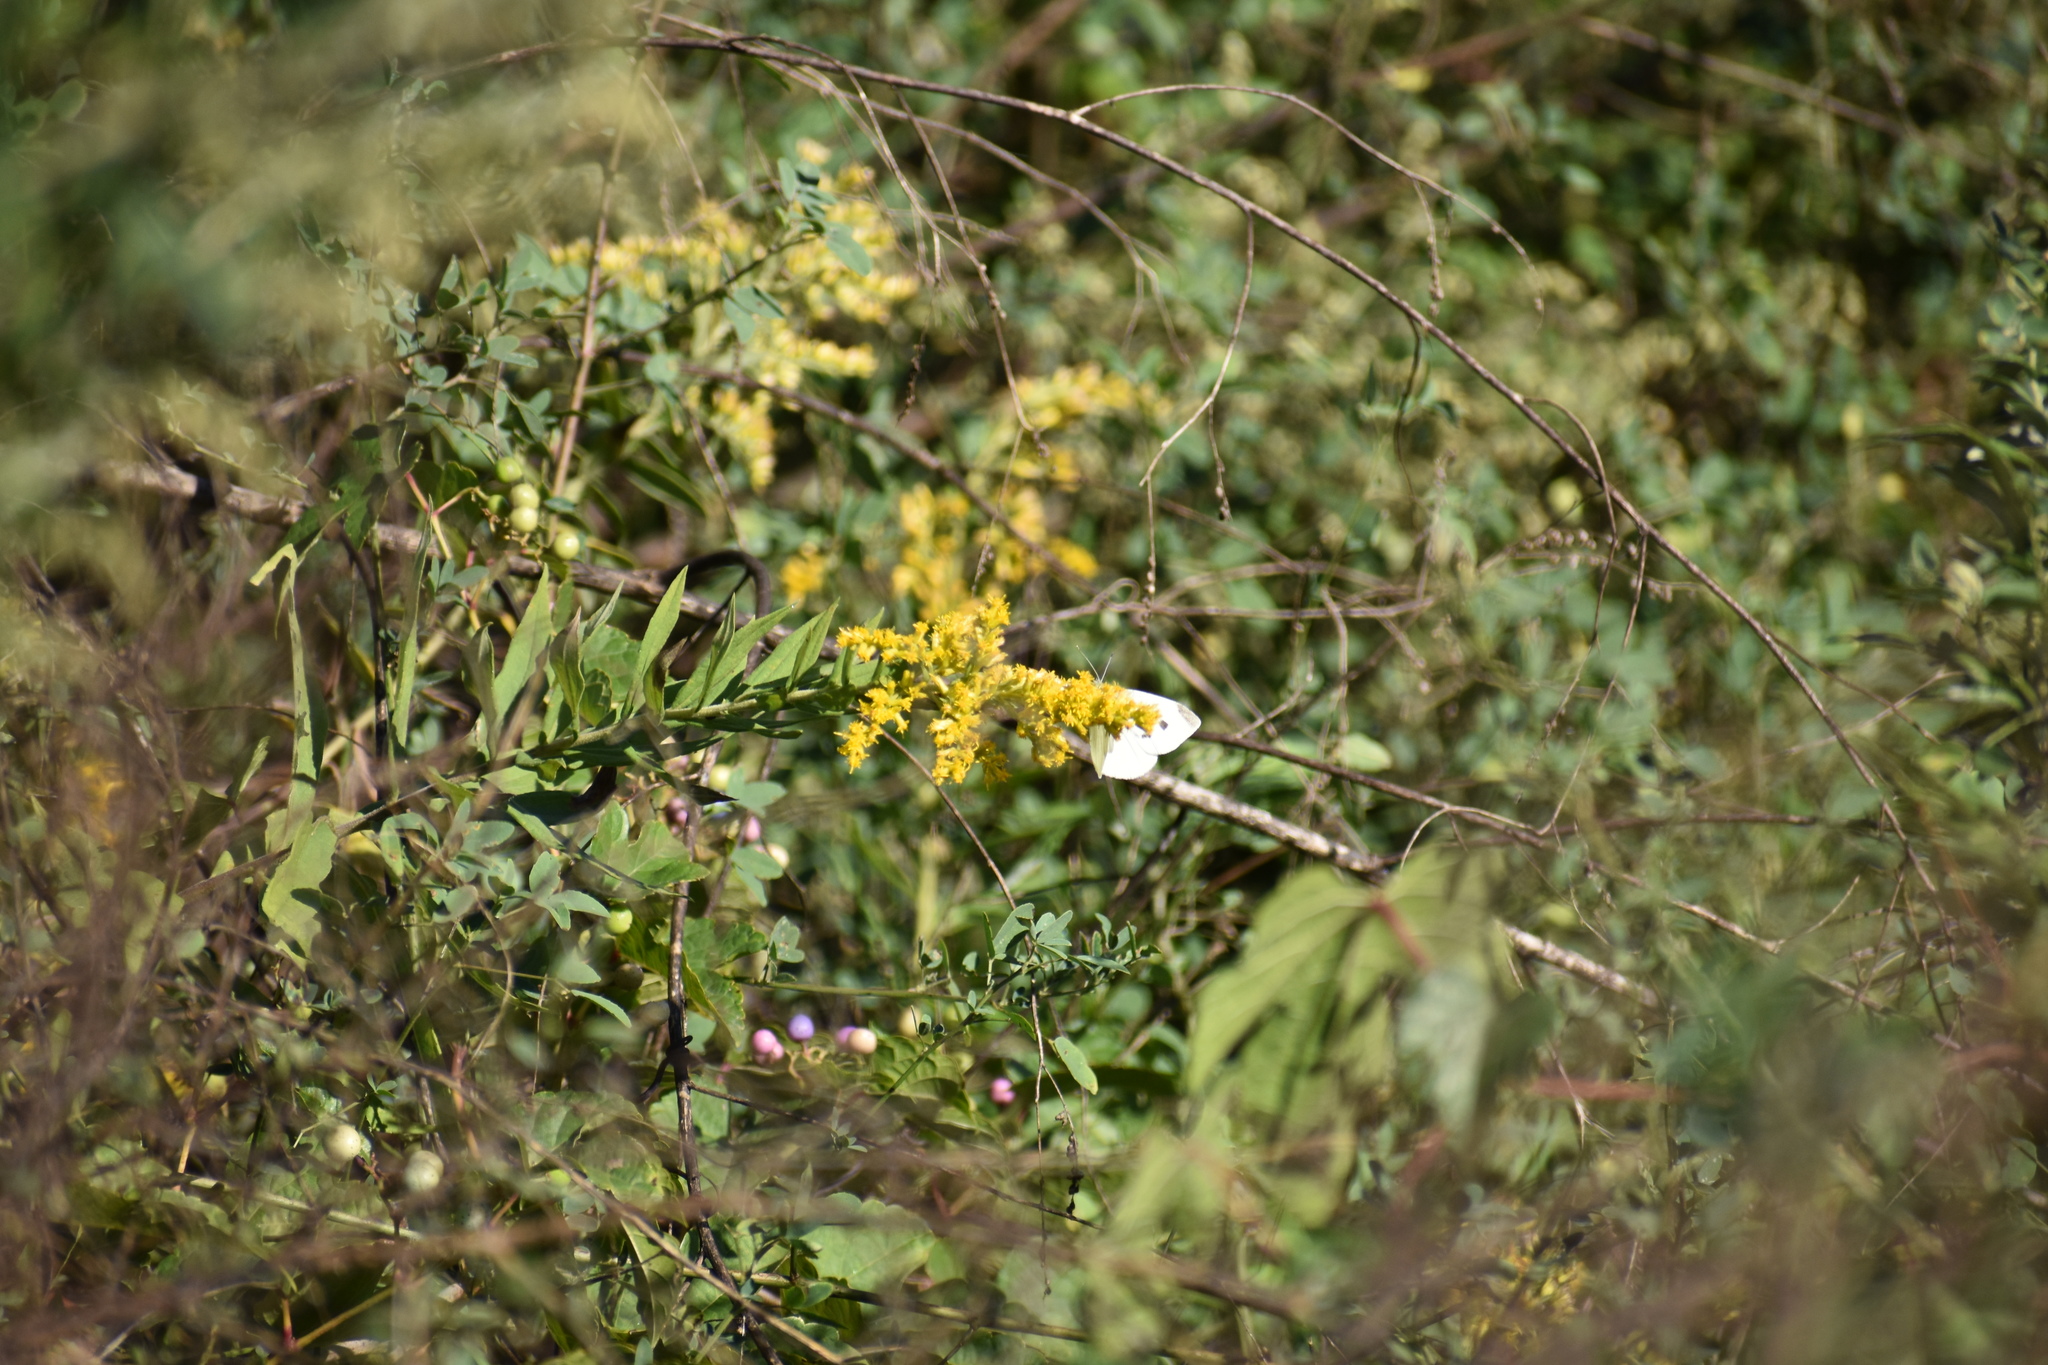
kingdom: Animalia
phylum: Arthropoda
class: Insecta
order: Lepidoptera
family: Pieridae
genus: Pieris
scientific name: Pieris rapae
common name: Small white
